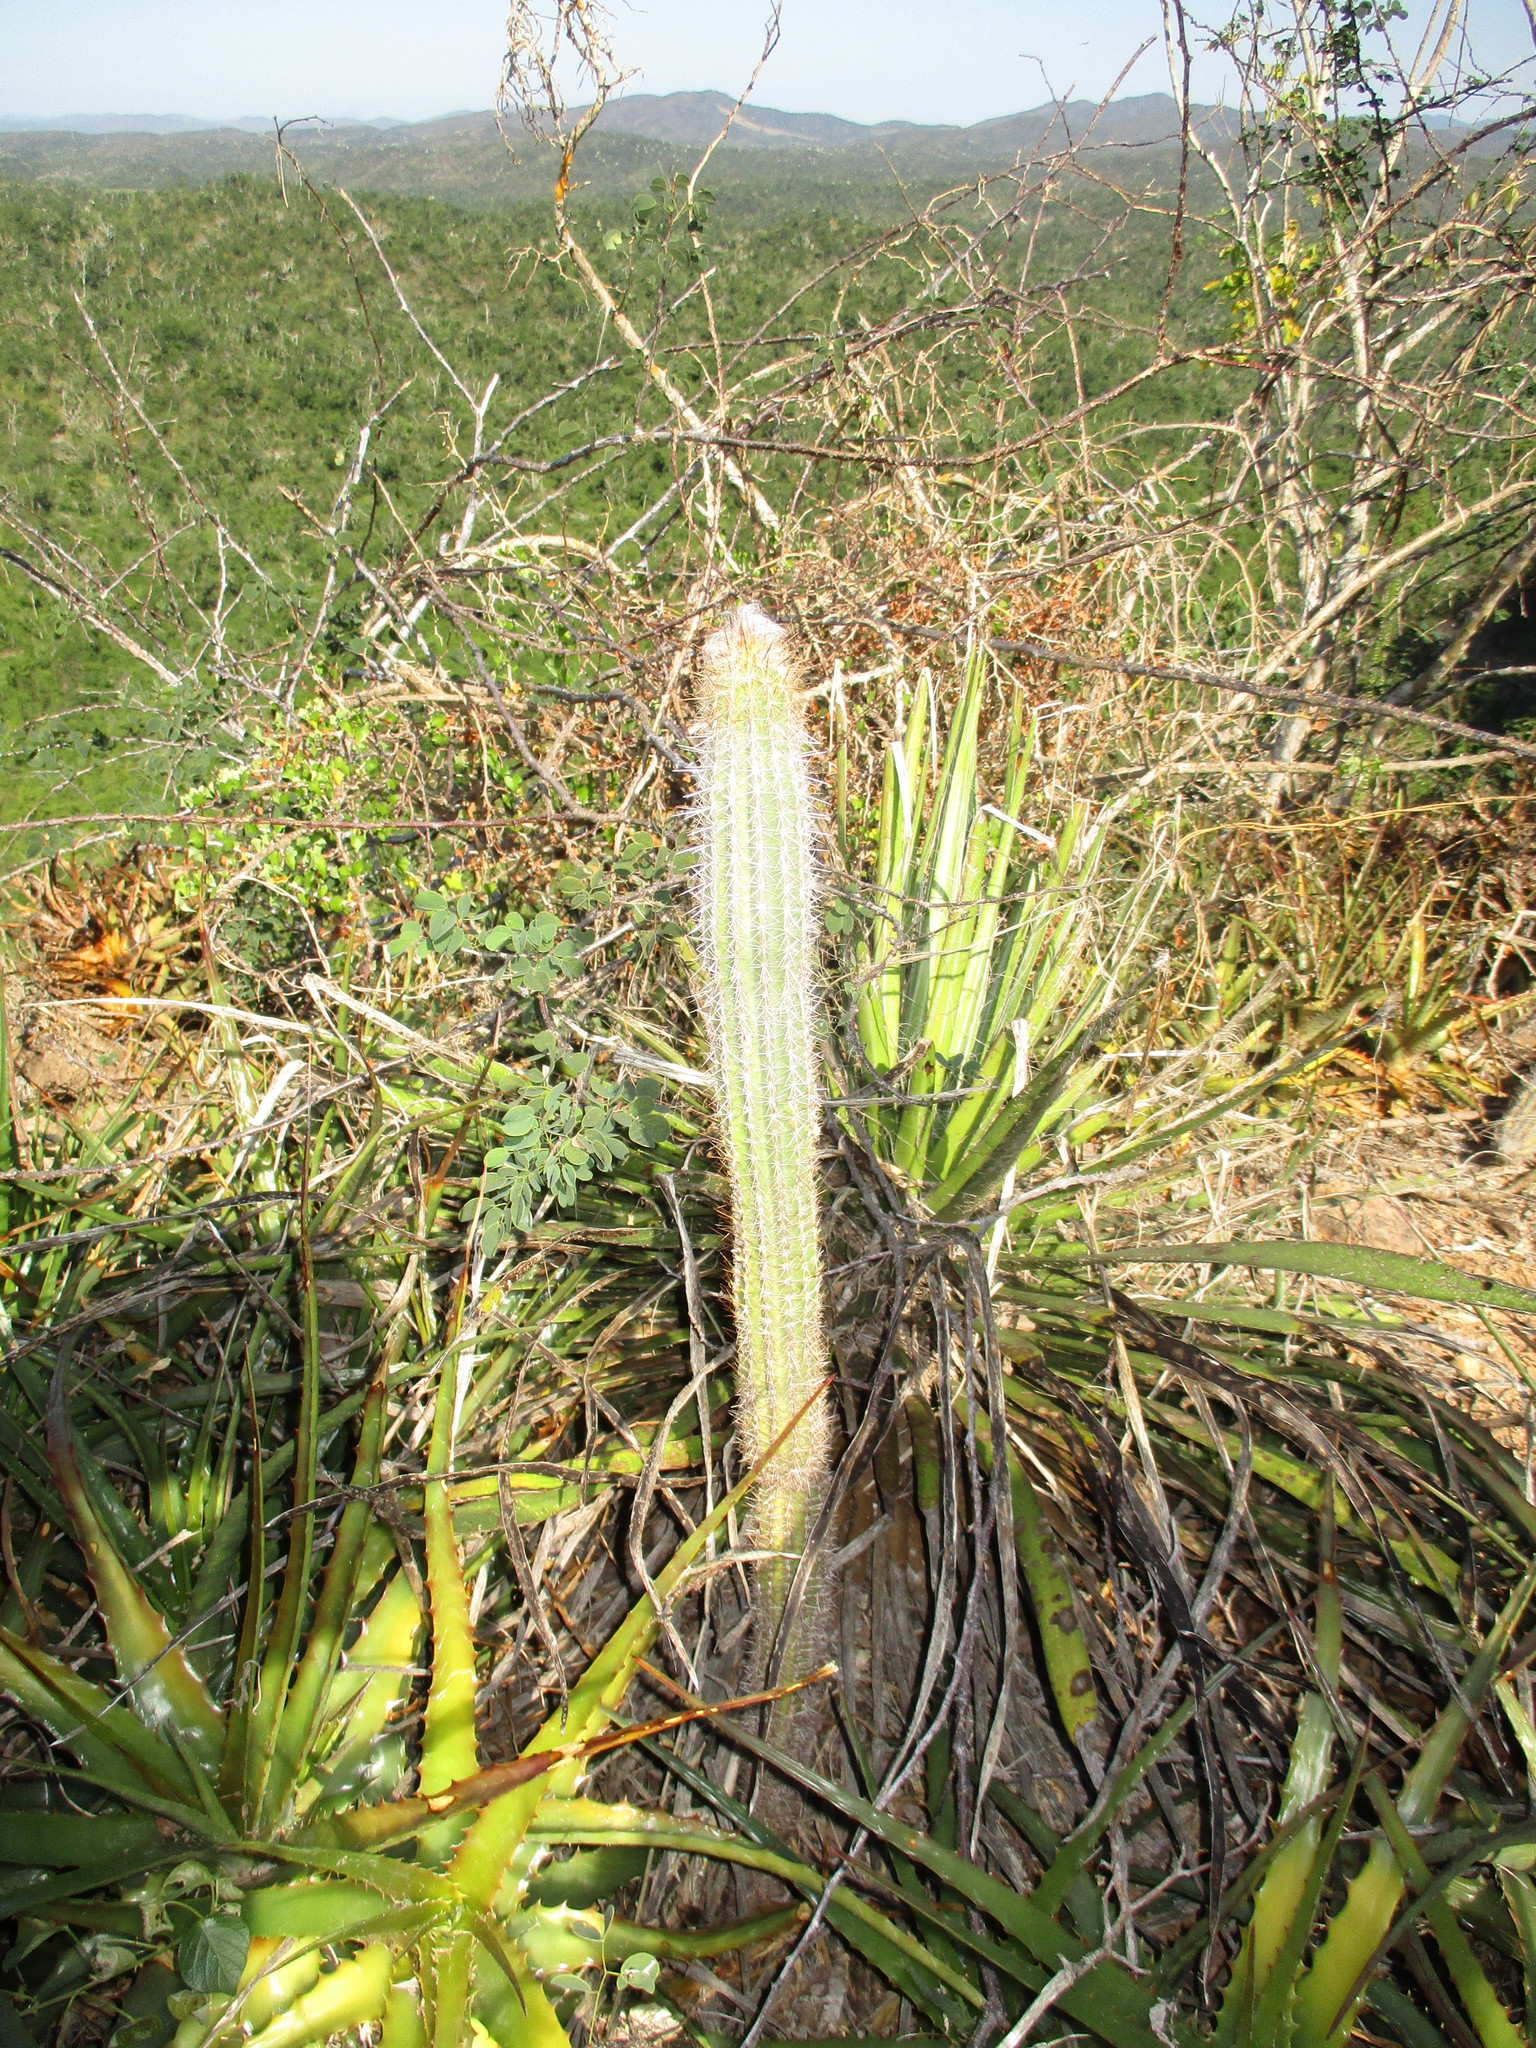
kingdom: Plantae
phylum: Tracheophyta
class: Magnoliopsida
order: Caryophyllales
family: Cactaceae
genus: Pilosocereus
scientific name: Pilosocereus purpusii
